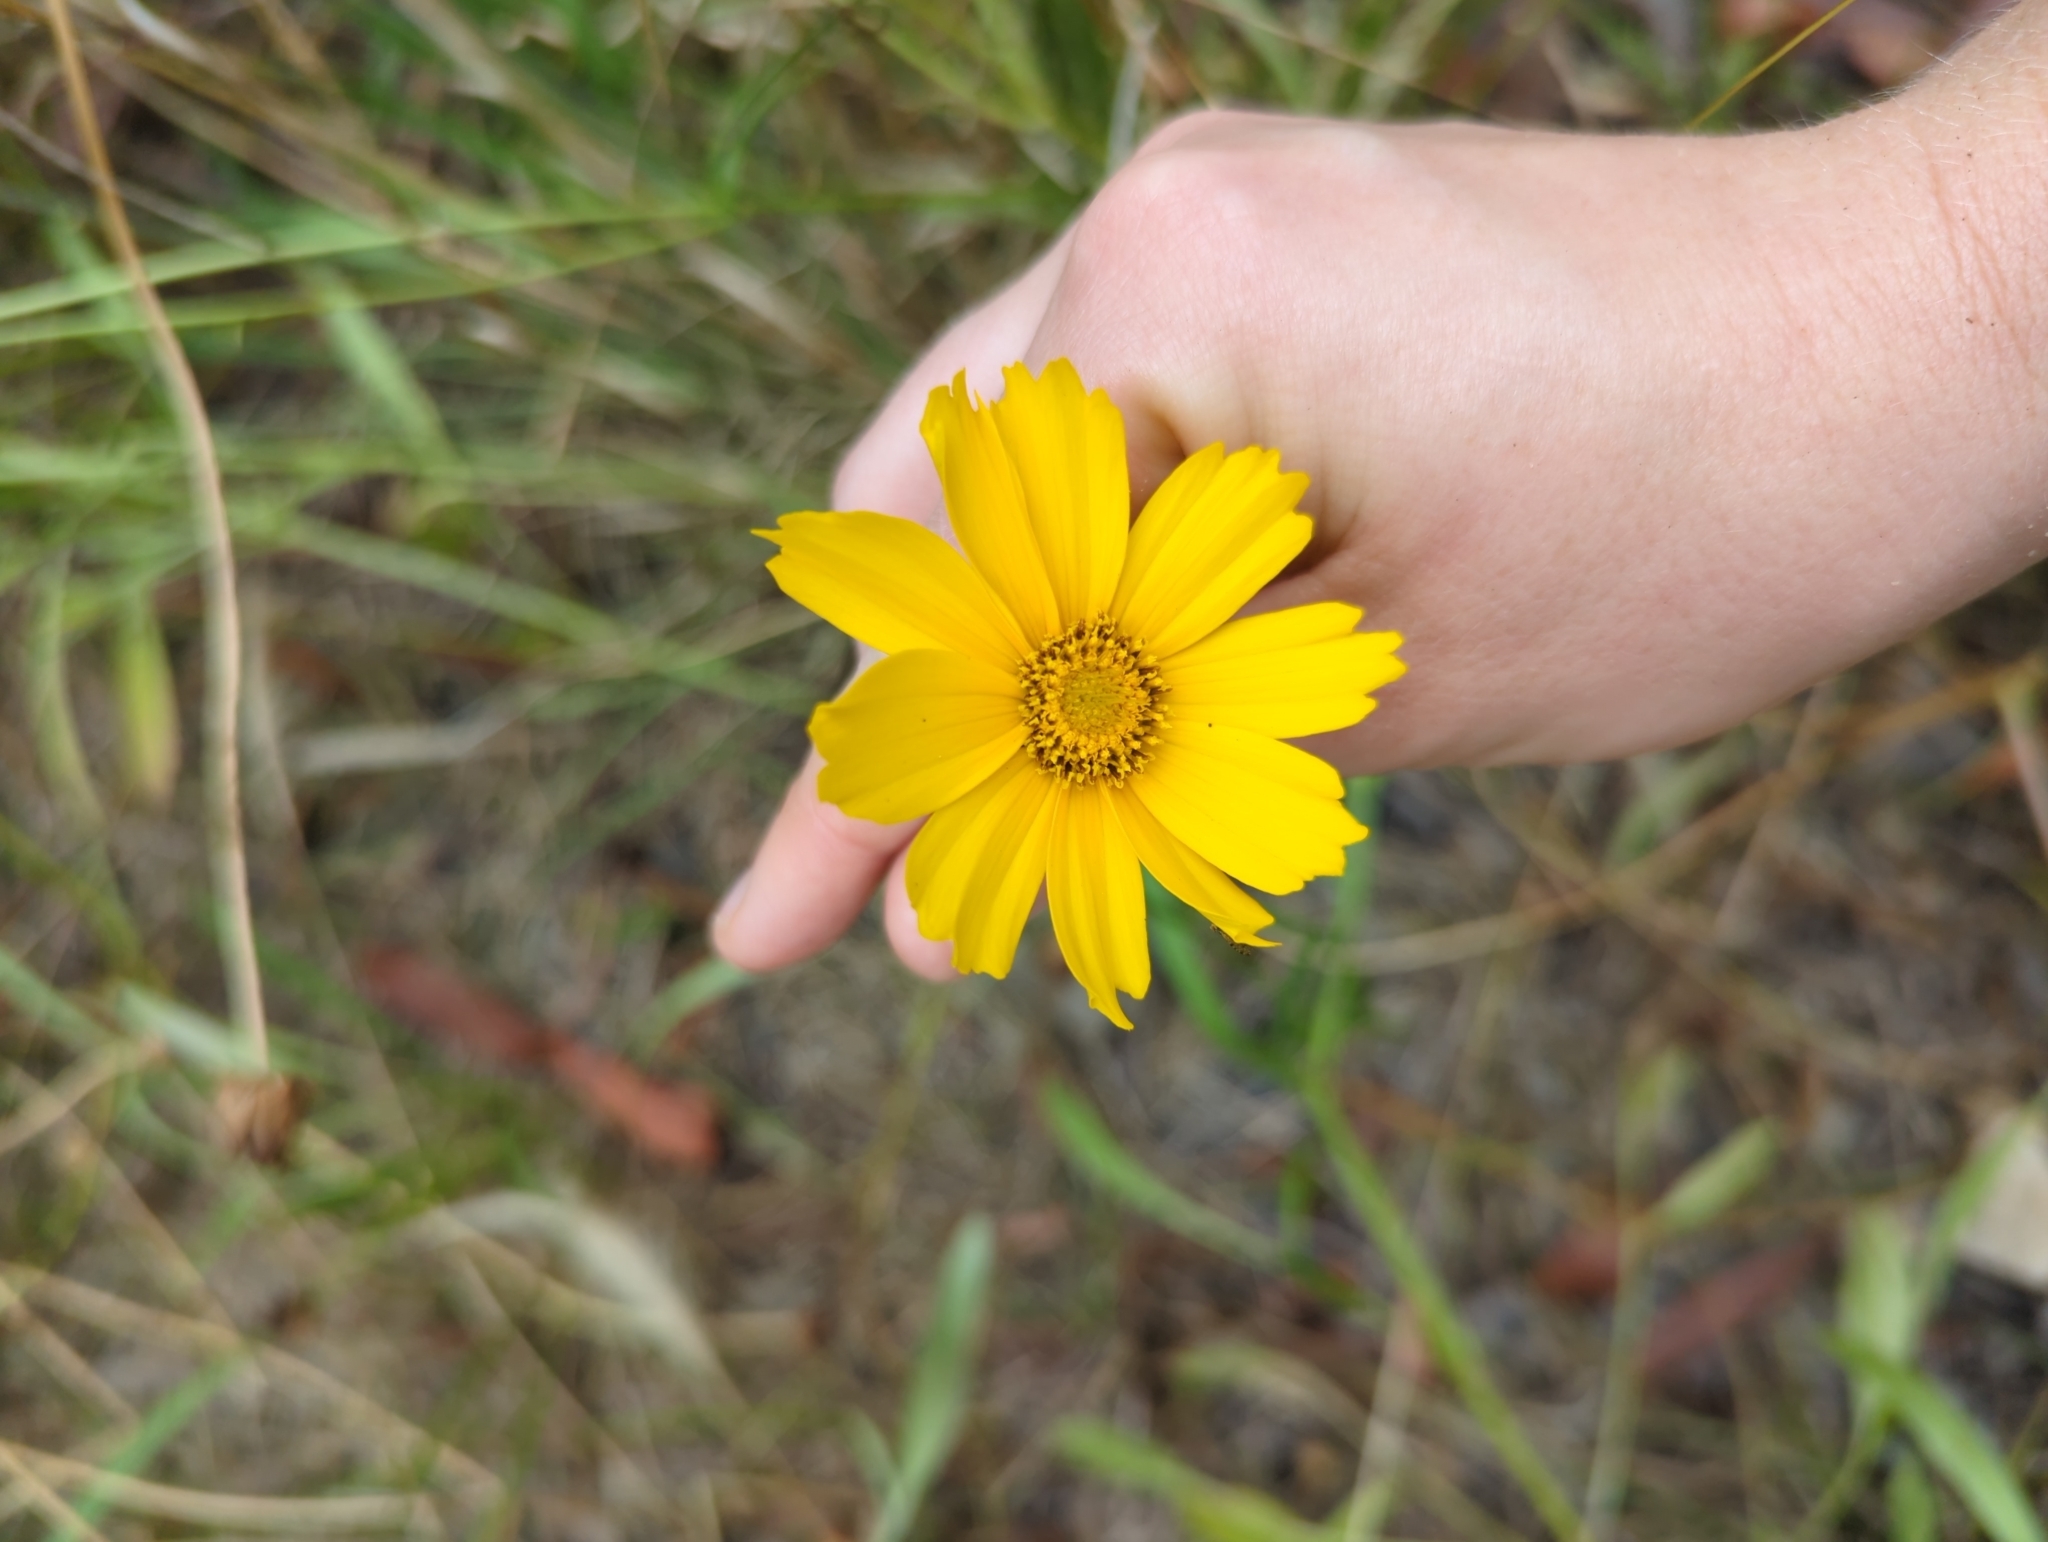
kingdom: Plantae
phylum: Tracheophyta
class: Magnoliopsida
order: Asterales
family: Asteraceae
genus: Coreopsis
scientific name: Coreopsis lanceolata
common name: Garden coreopsis
